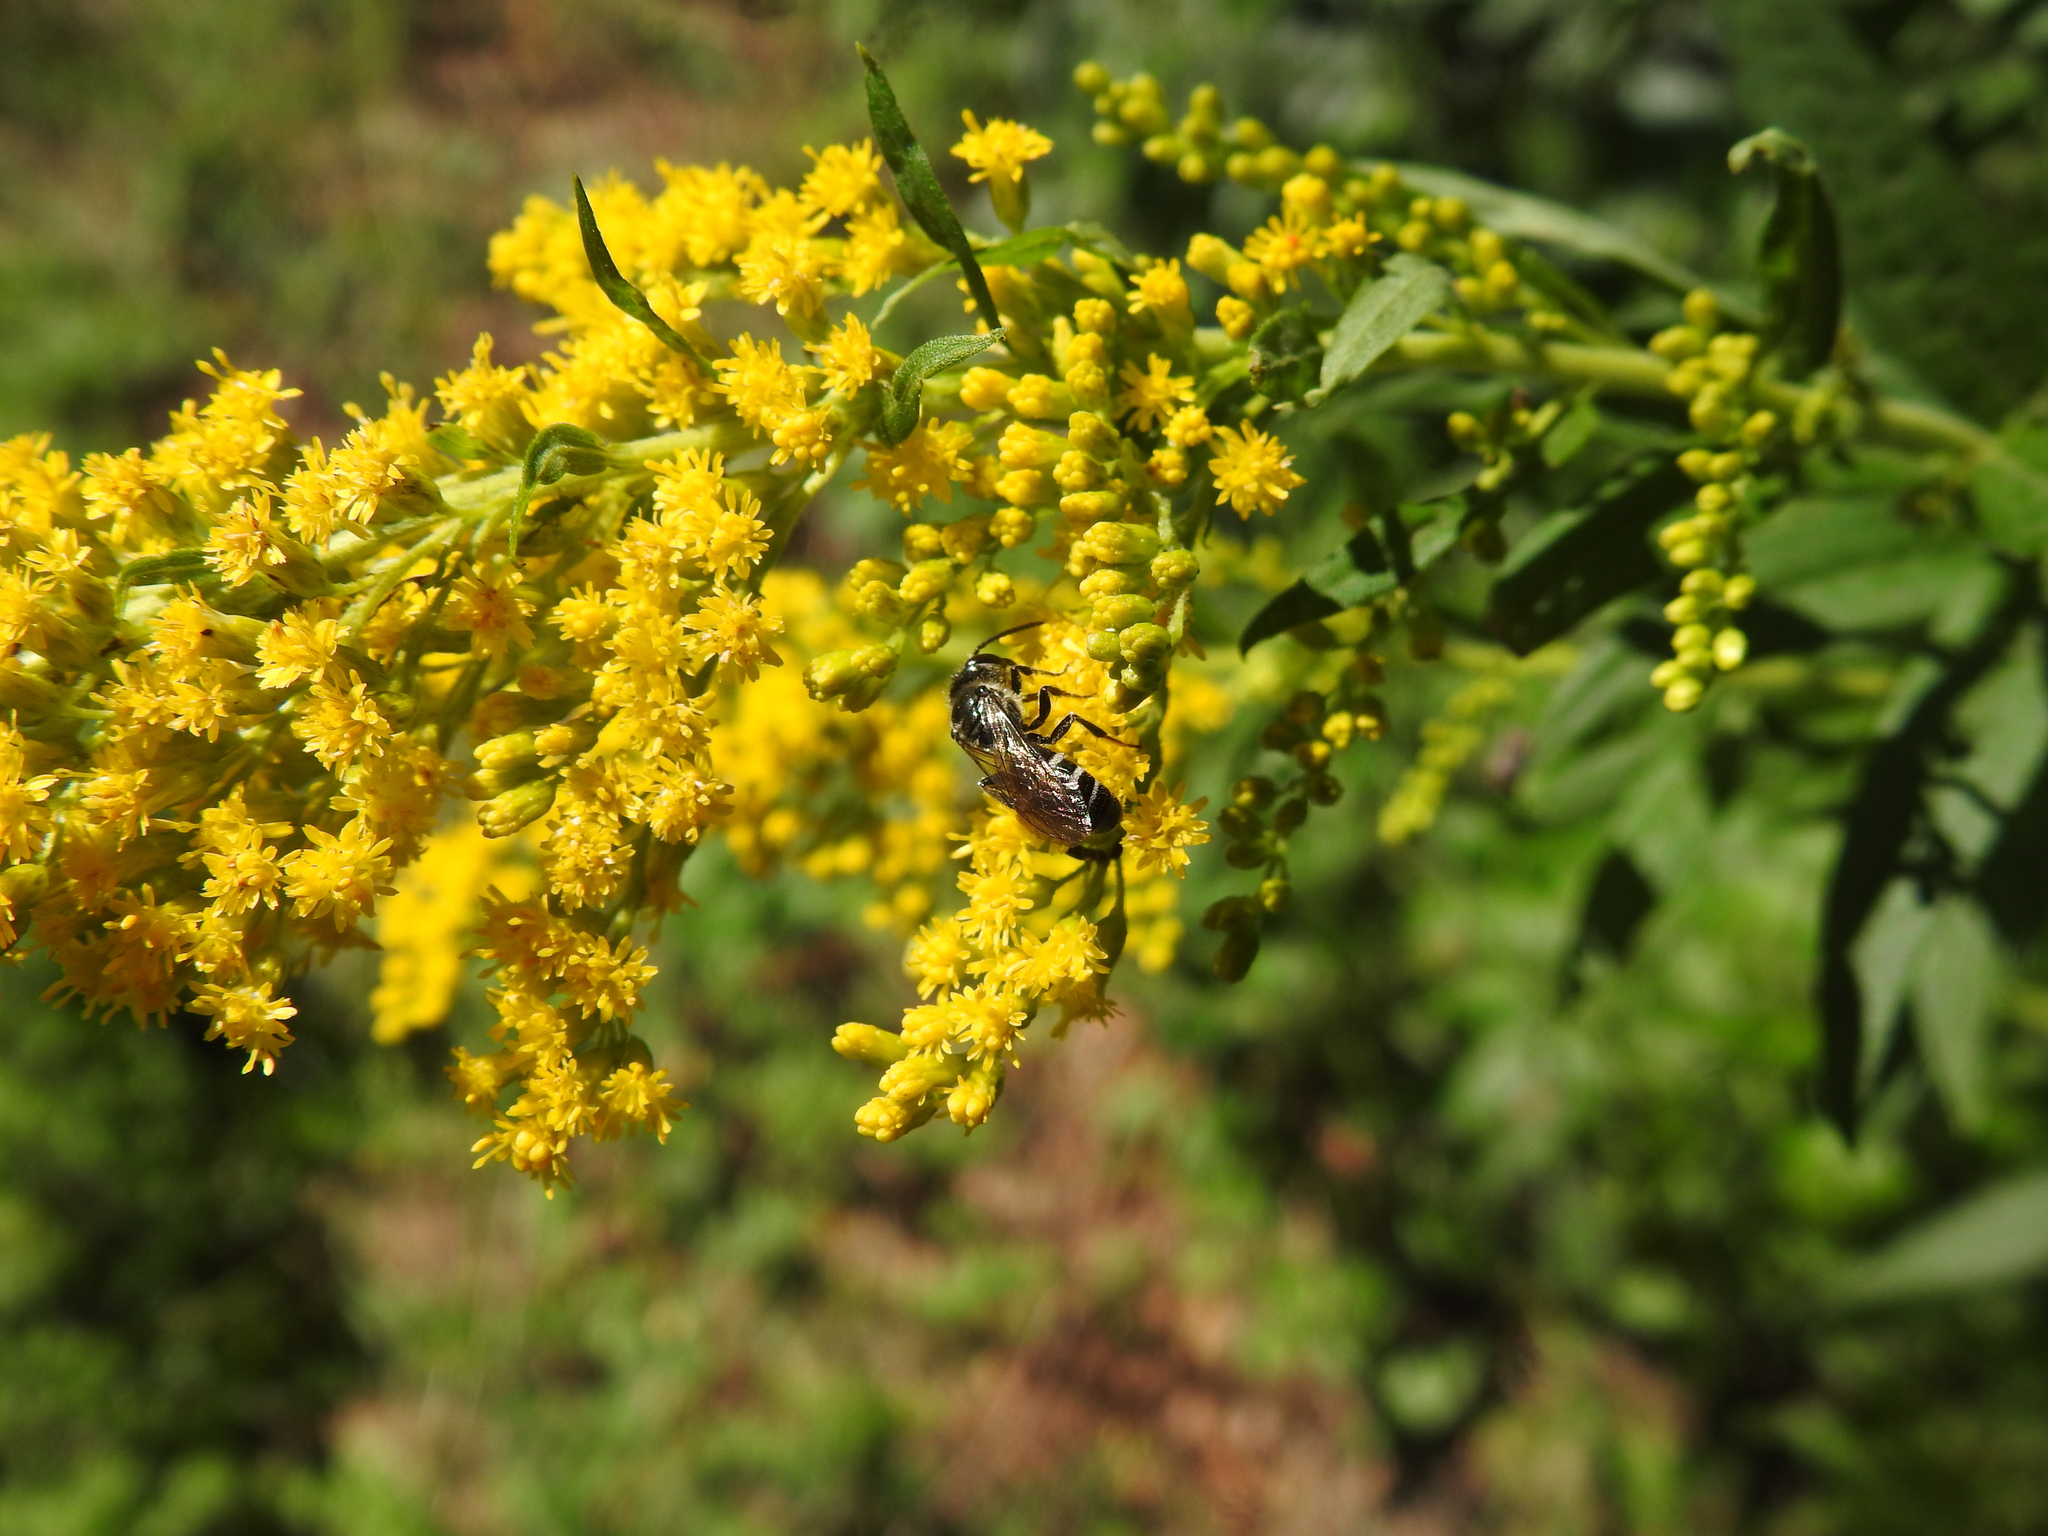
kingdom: Animalia
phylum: Arthropoda
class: Insecta
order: Hymenoptera
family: Halictidae
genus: Lasioglossum
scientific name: Lasioglossum coriaceum
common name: Leathery sweat bee
